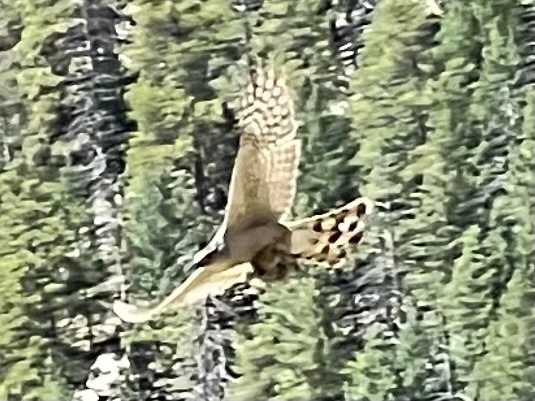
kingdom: Animalia
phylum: Chordata
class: Aves
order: Accipitriformes
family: Accipitridae
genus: Accipiter
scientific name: Accipiter cooperii
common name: Cooper's hawk
